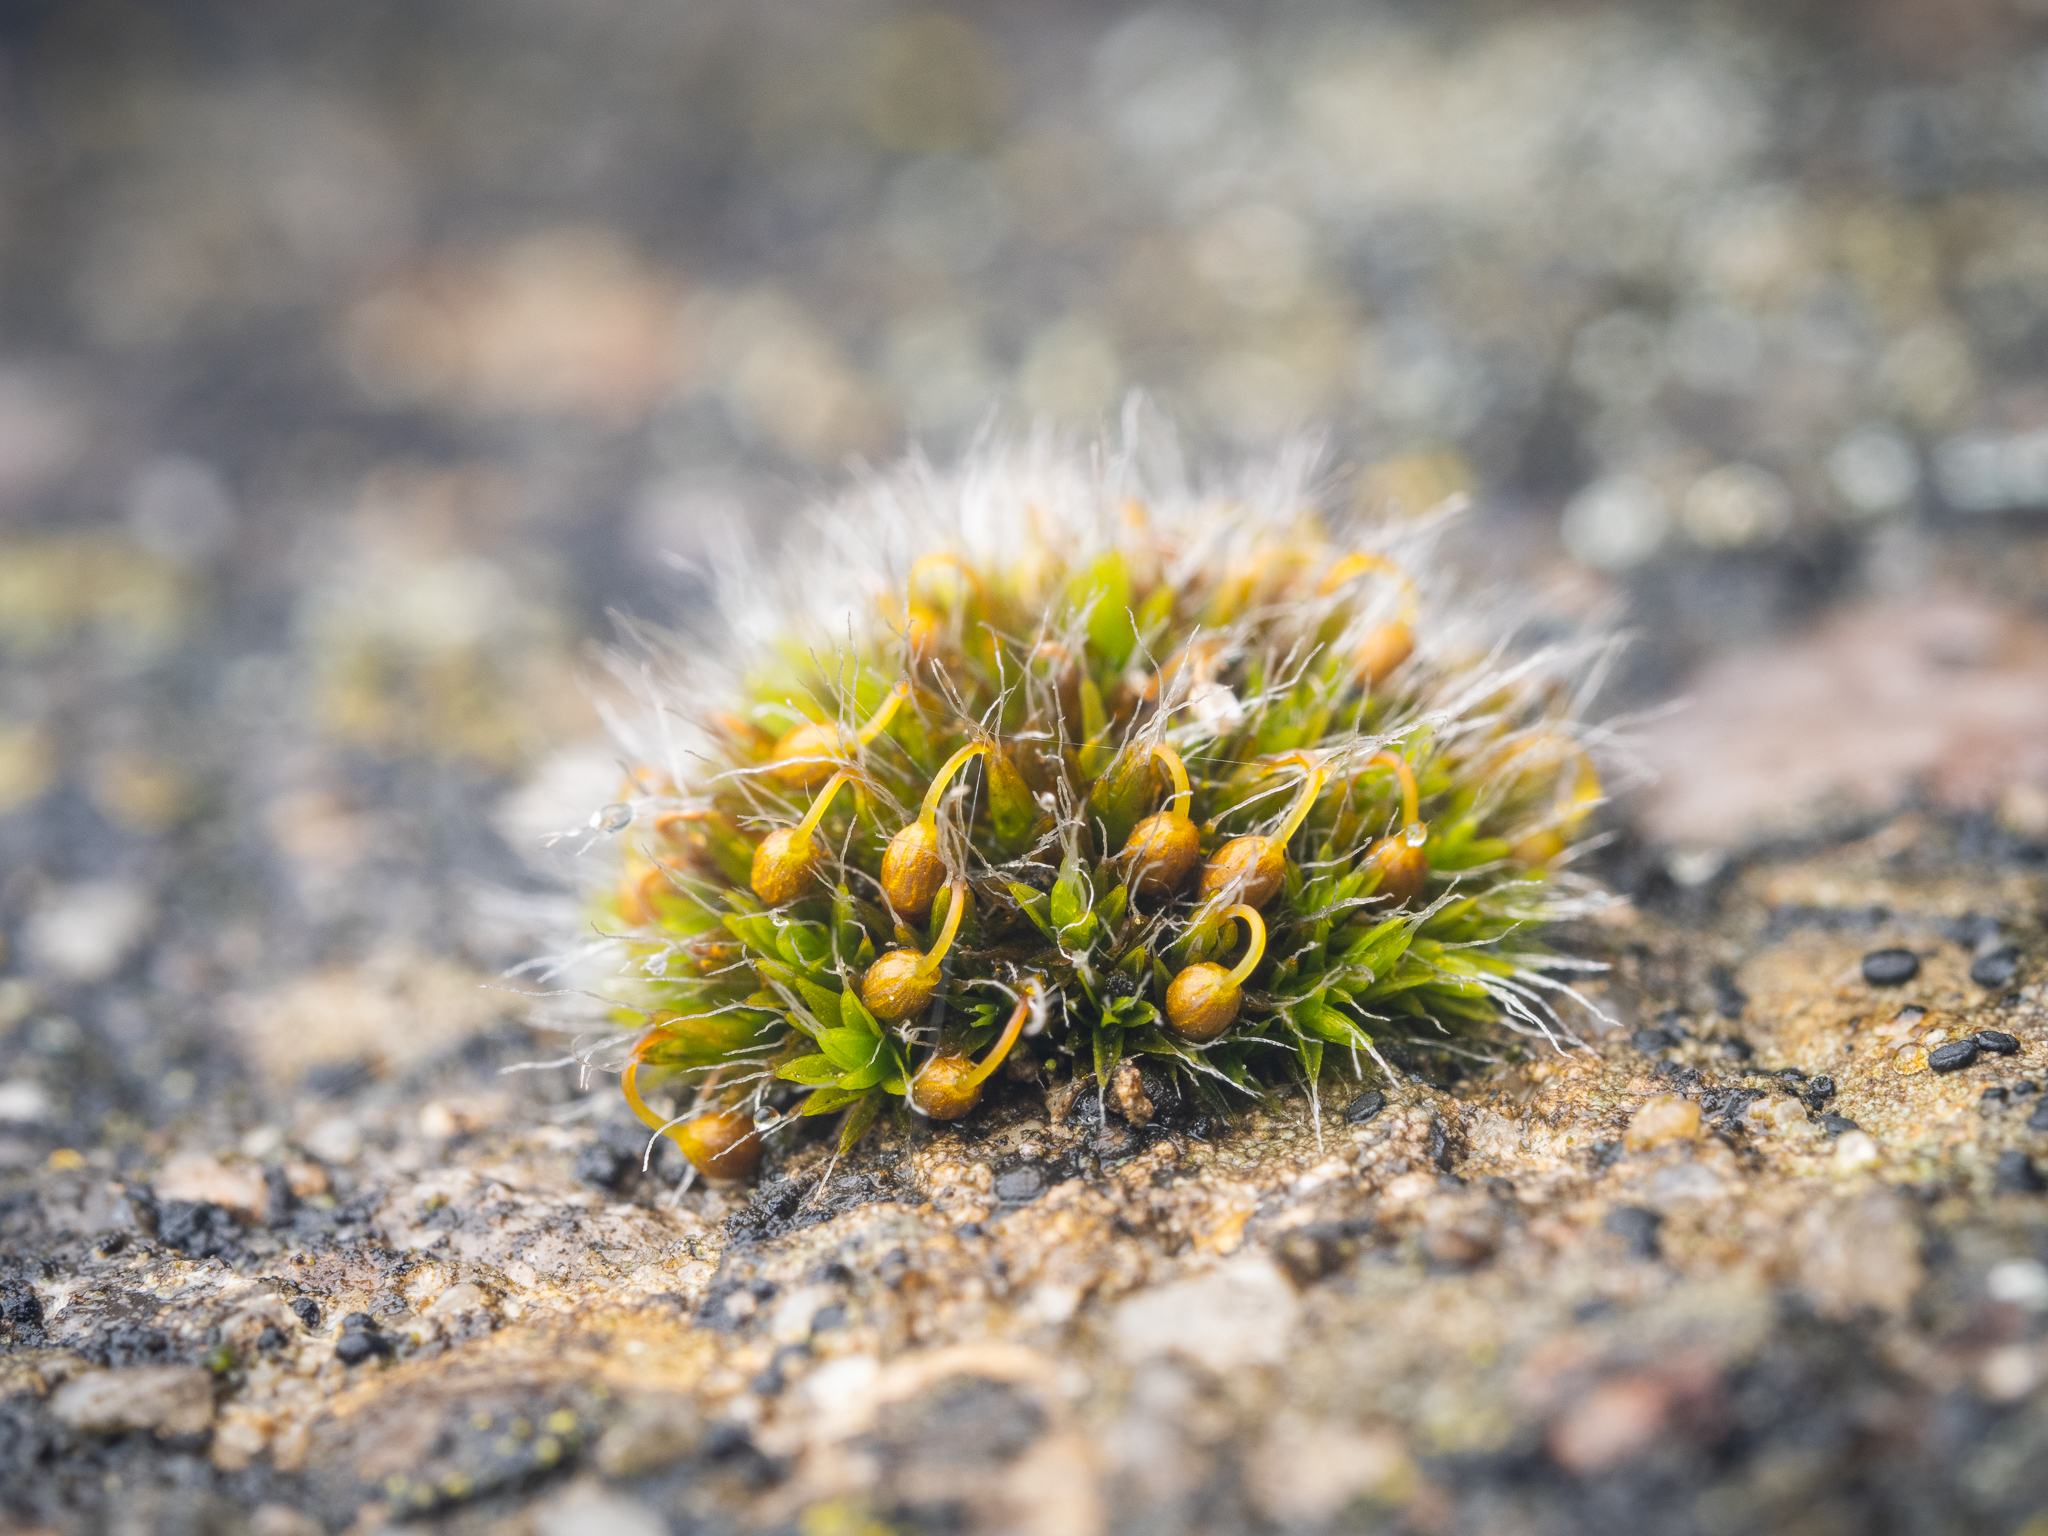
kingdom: Plantae
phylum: Bryophyta
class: Bryopsida
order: Grimmiales
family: Grimmiaceae
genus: Grimmia
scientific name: Grimmia pulvinata
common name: Grey-cushioned grimmia
